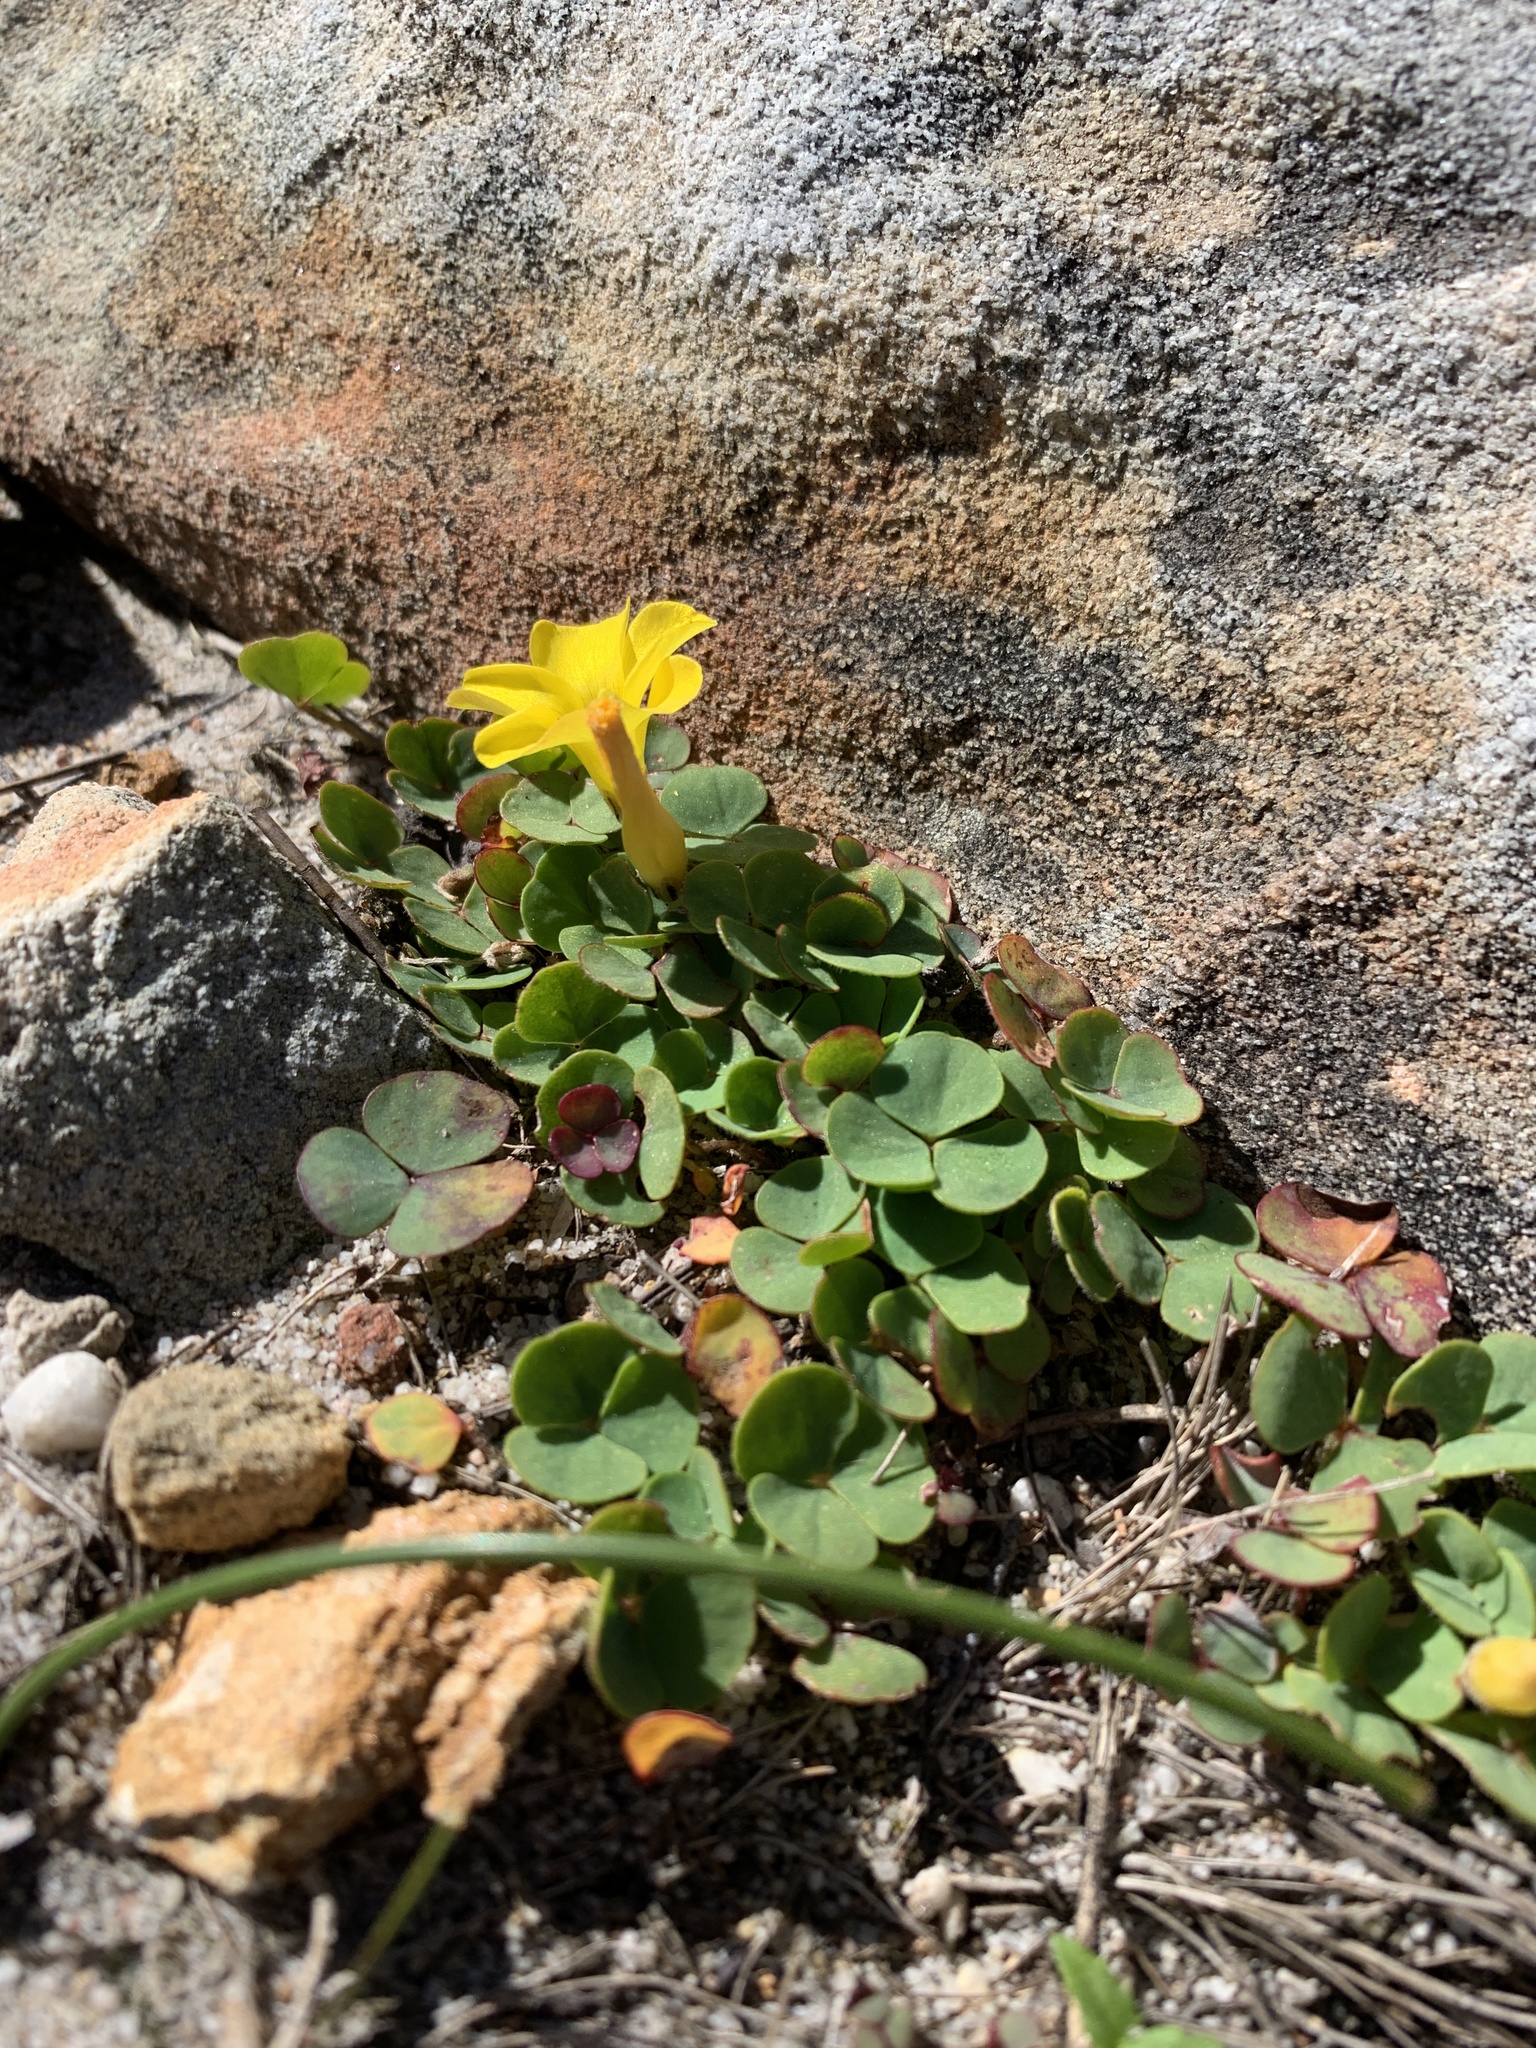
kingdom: Plantae
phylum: Tracheophyta
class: Magnoliopsida
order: Oxalidales
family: Oxalidaceae
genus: Oxalis
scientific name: Oxalis luteola
